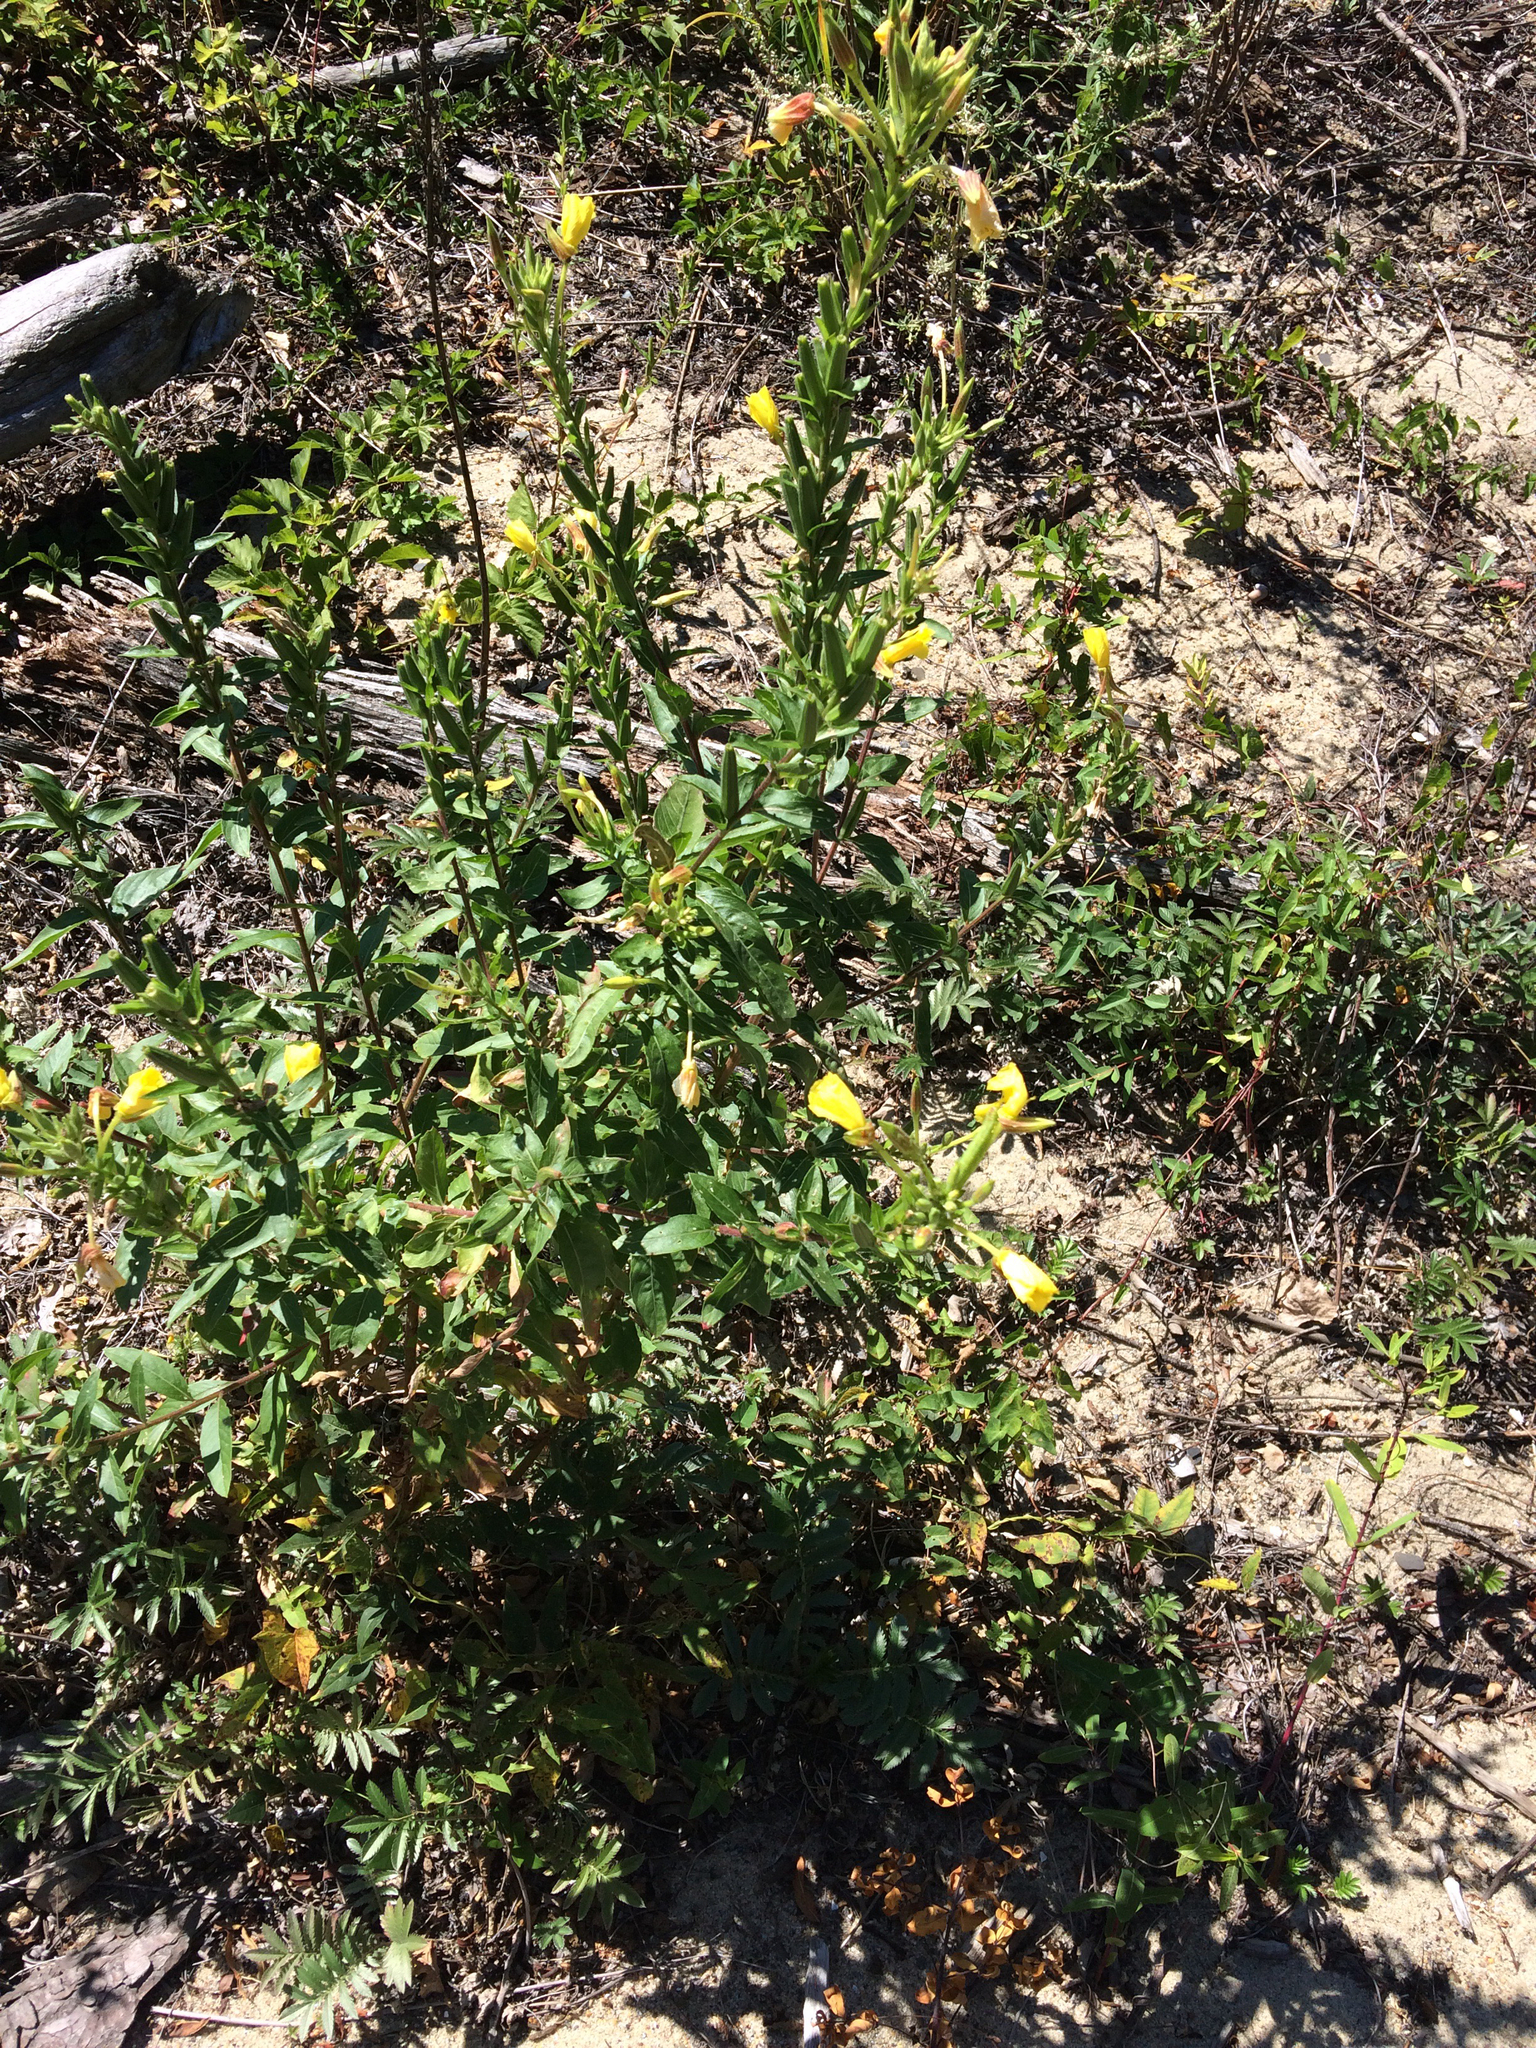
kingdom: Plantae
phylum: Tracheophyta
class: Magnoliopsida
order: Myrtales
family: Onagraceae
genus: Oenothera
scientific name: Oenothera biennis
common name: Common evening-primrose
